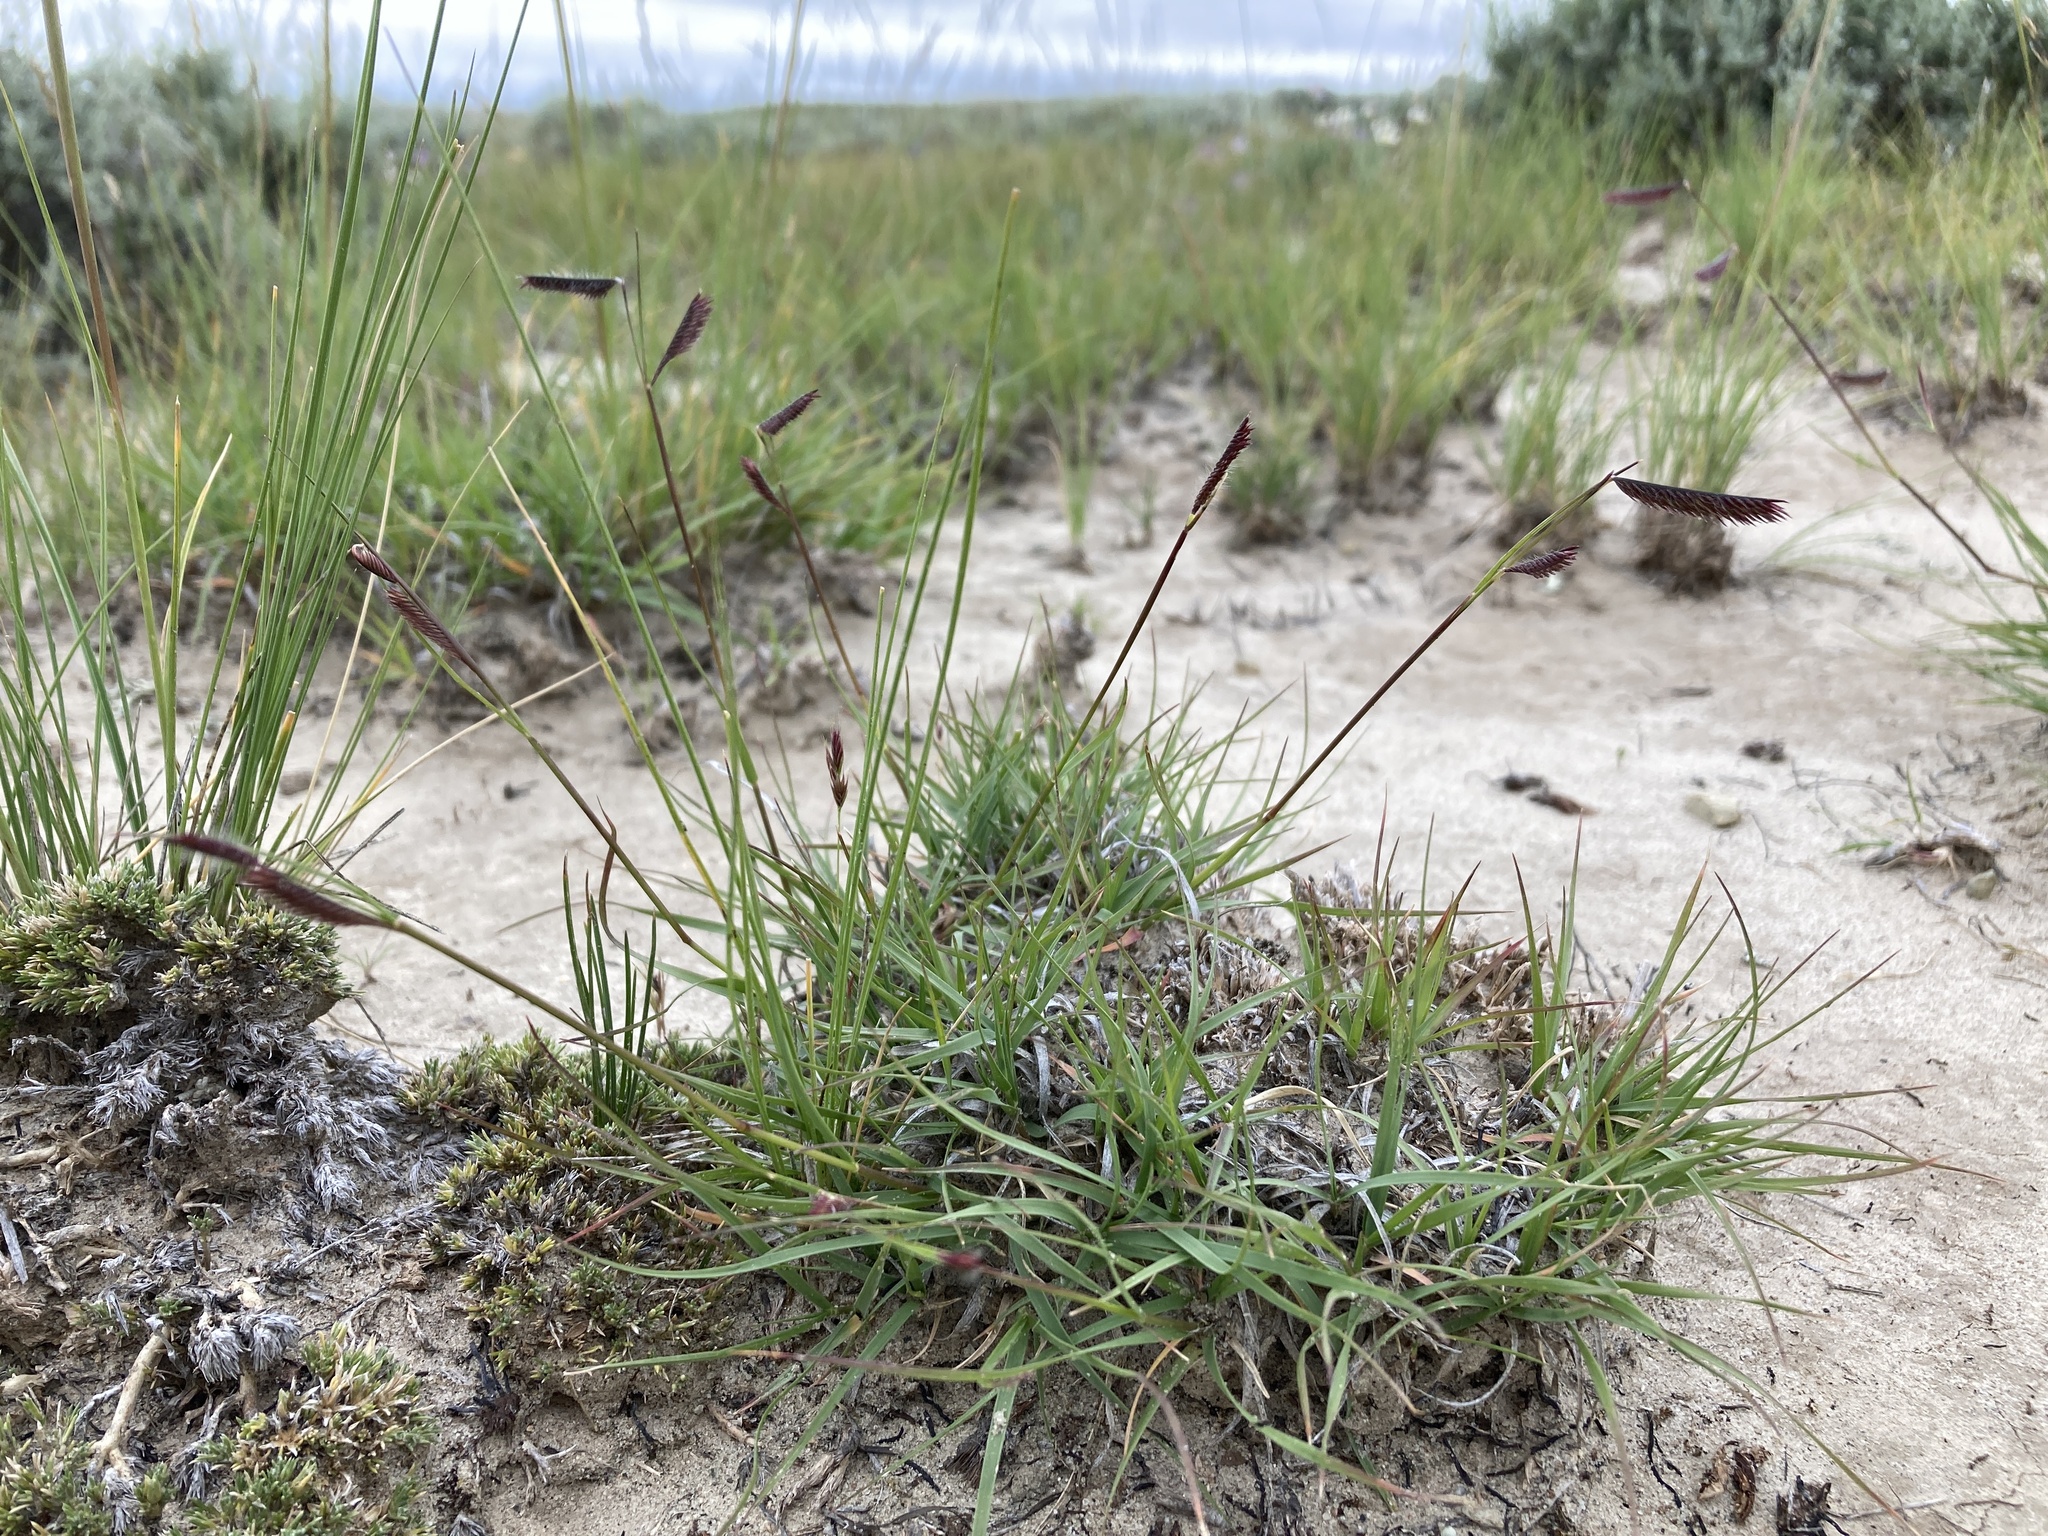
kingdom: Plantae
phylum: Tracheophyta
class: Liliopsida
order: Poales
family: Poaceae
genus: Bouteloua
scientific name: Bouteloua gracilis
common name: Blue grama
